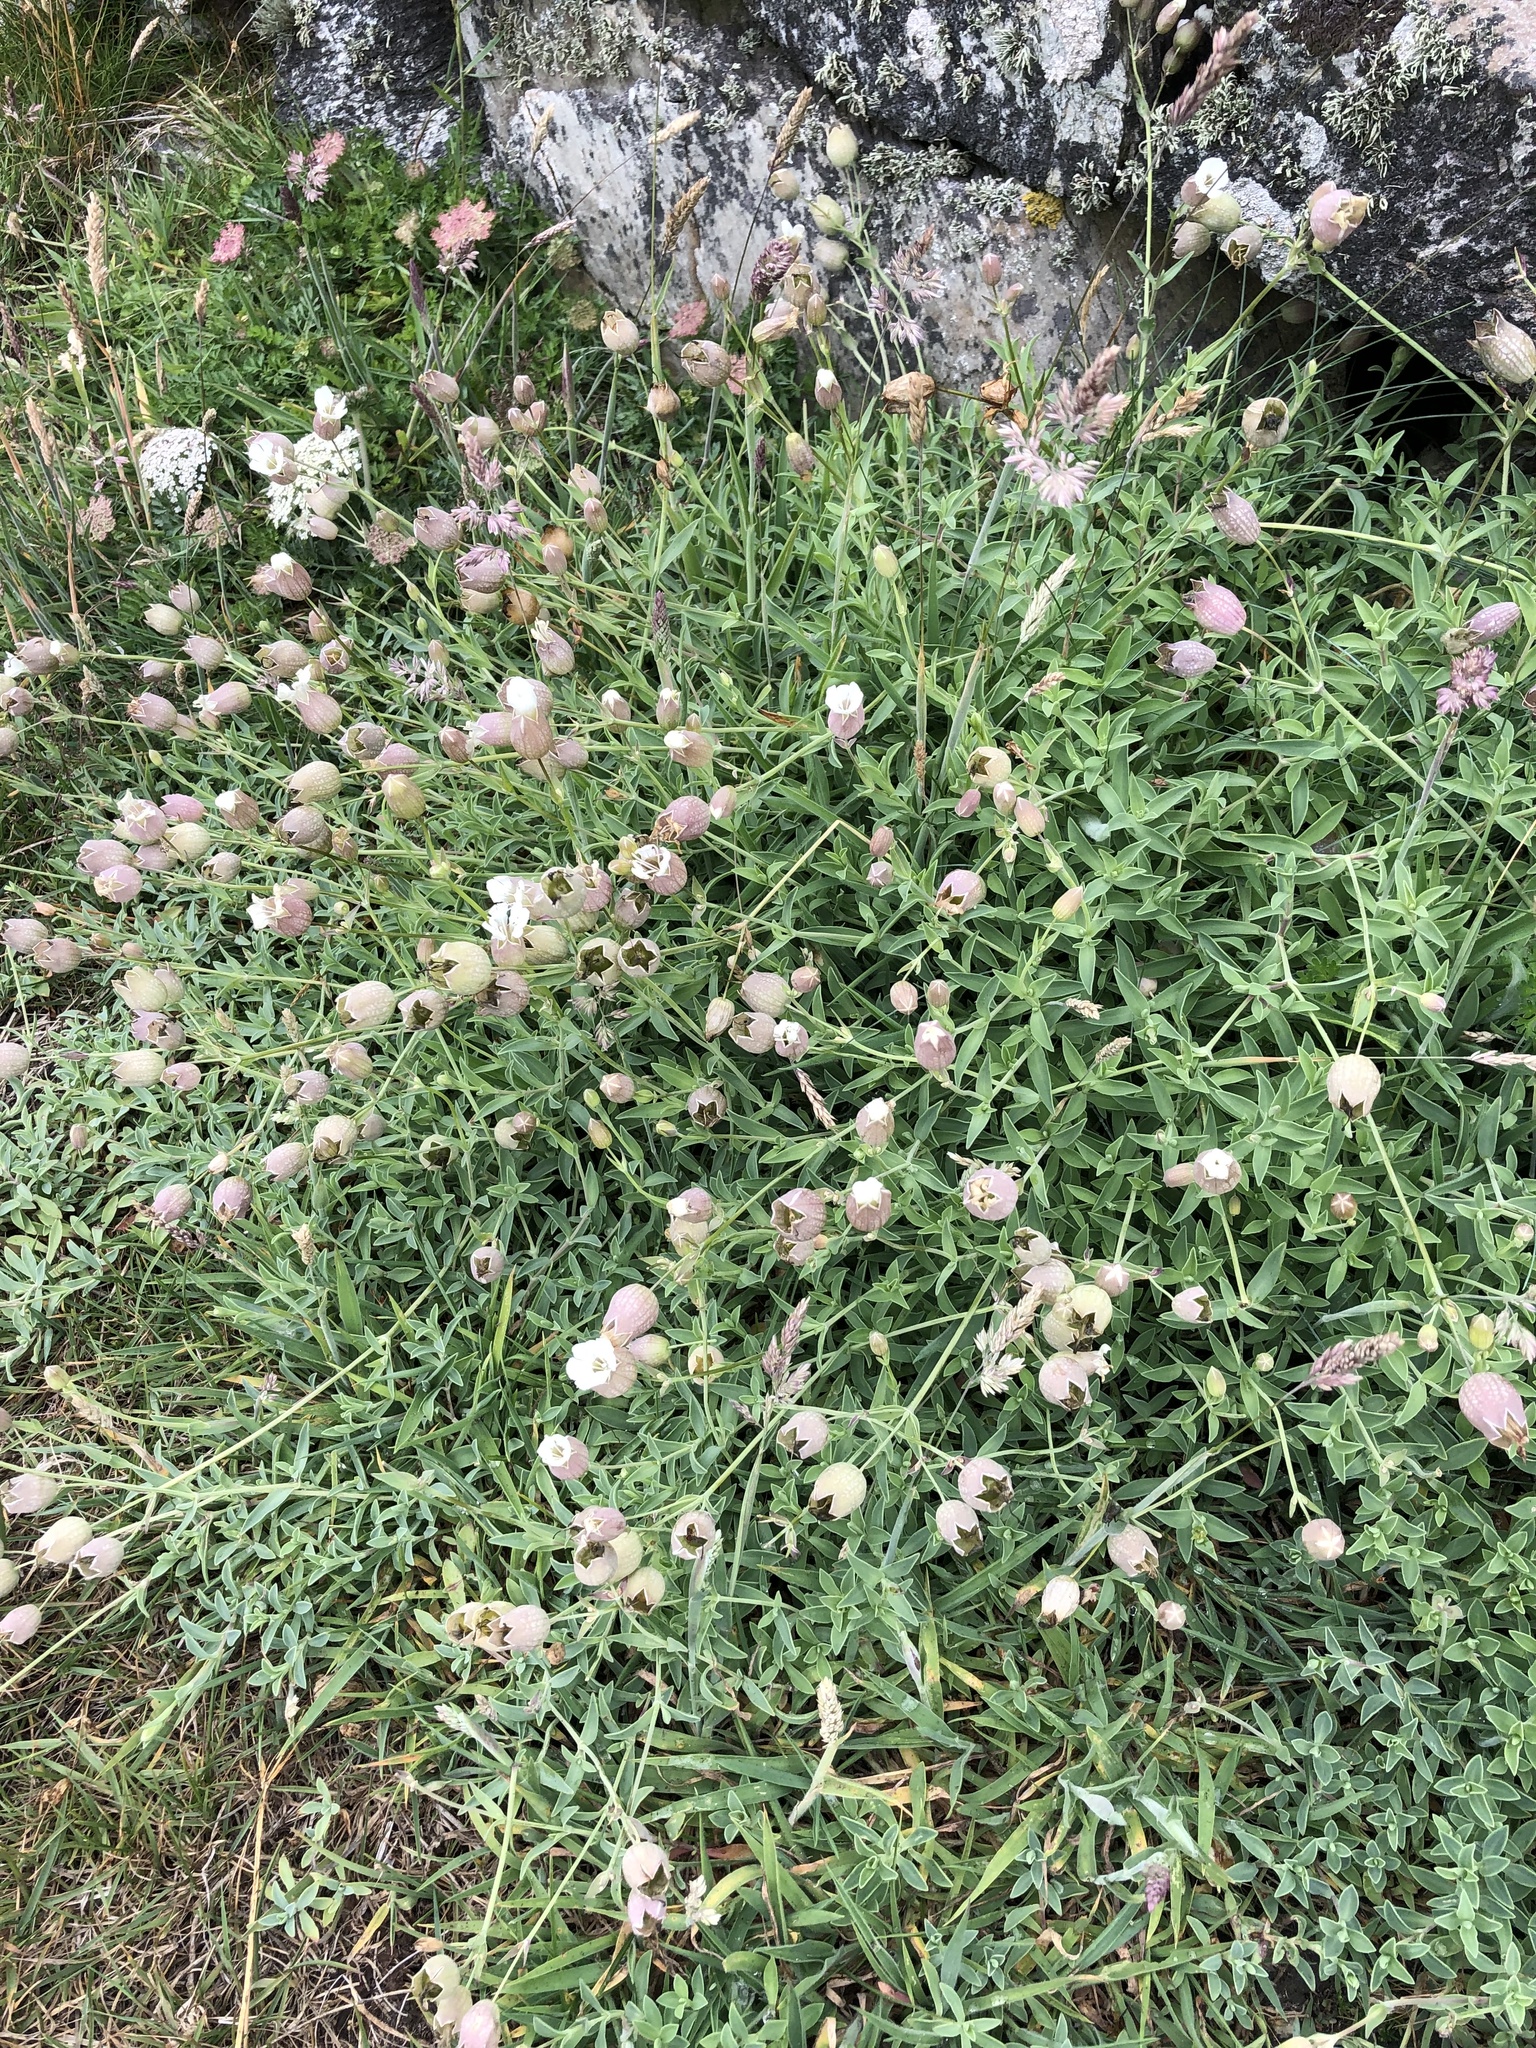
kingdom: Plantae
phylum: Tracheophyta
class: Magnoliopsida
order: Caryophyllales
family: Caryophyllaceae
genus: Silene
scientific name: Silene uniflora
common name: Sea campion
